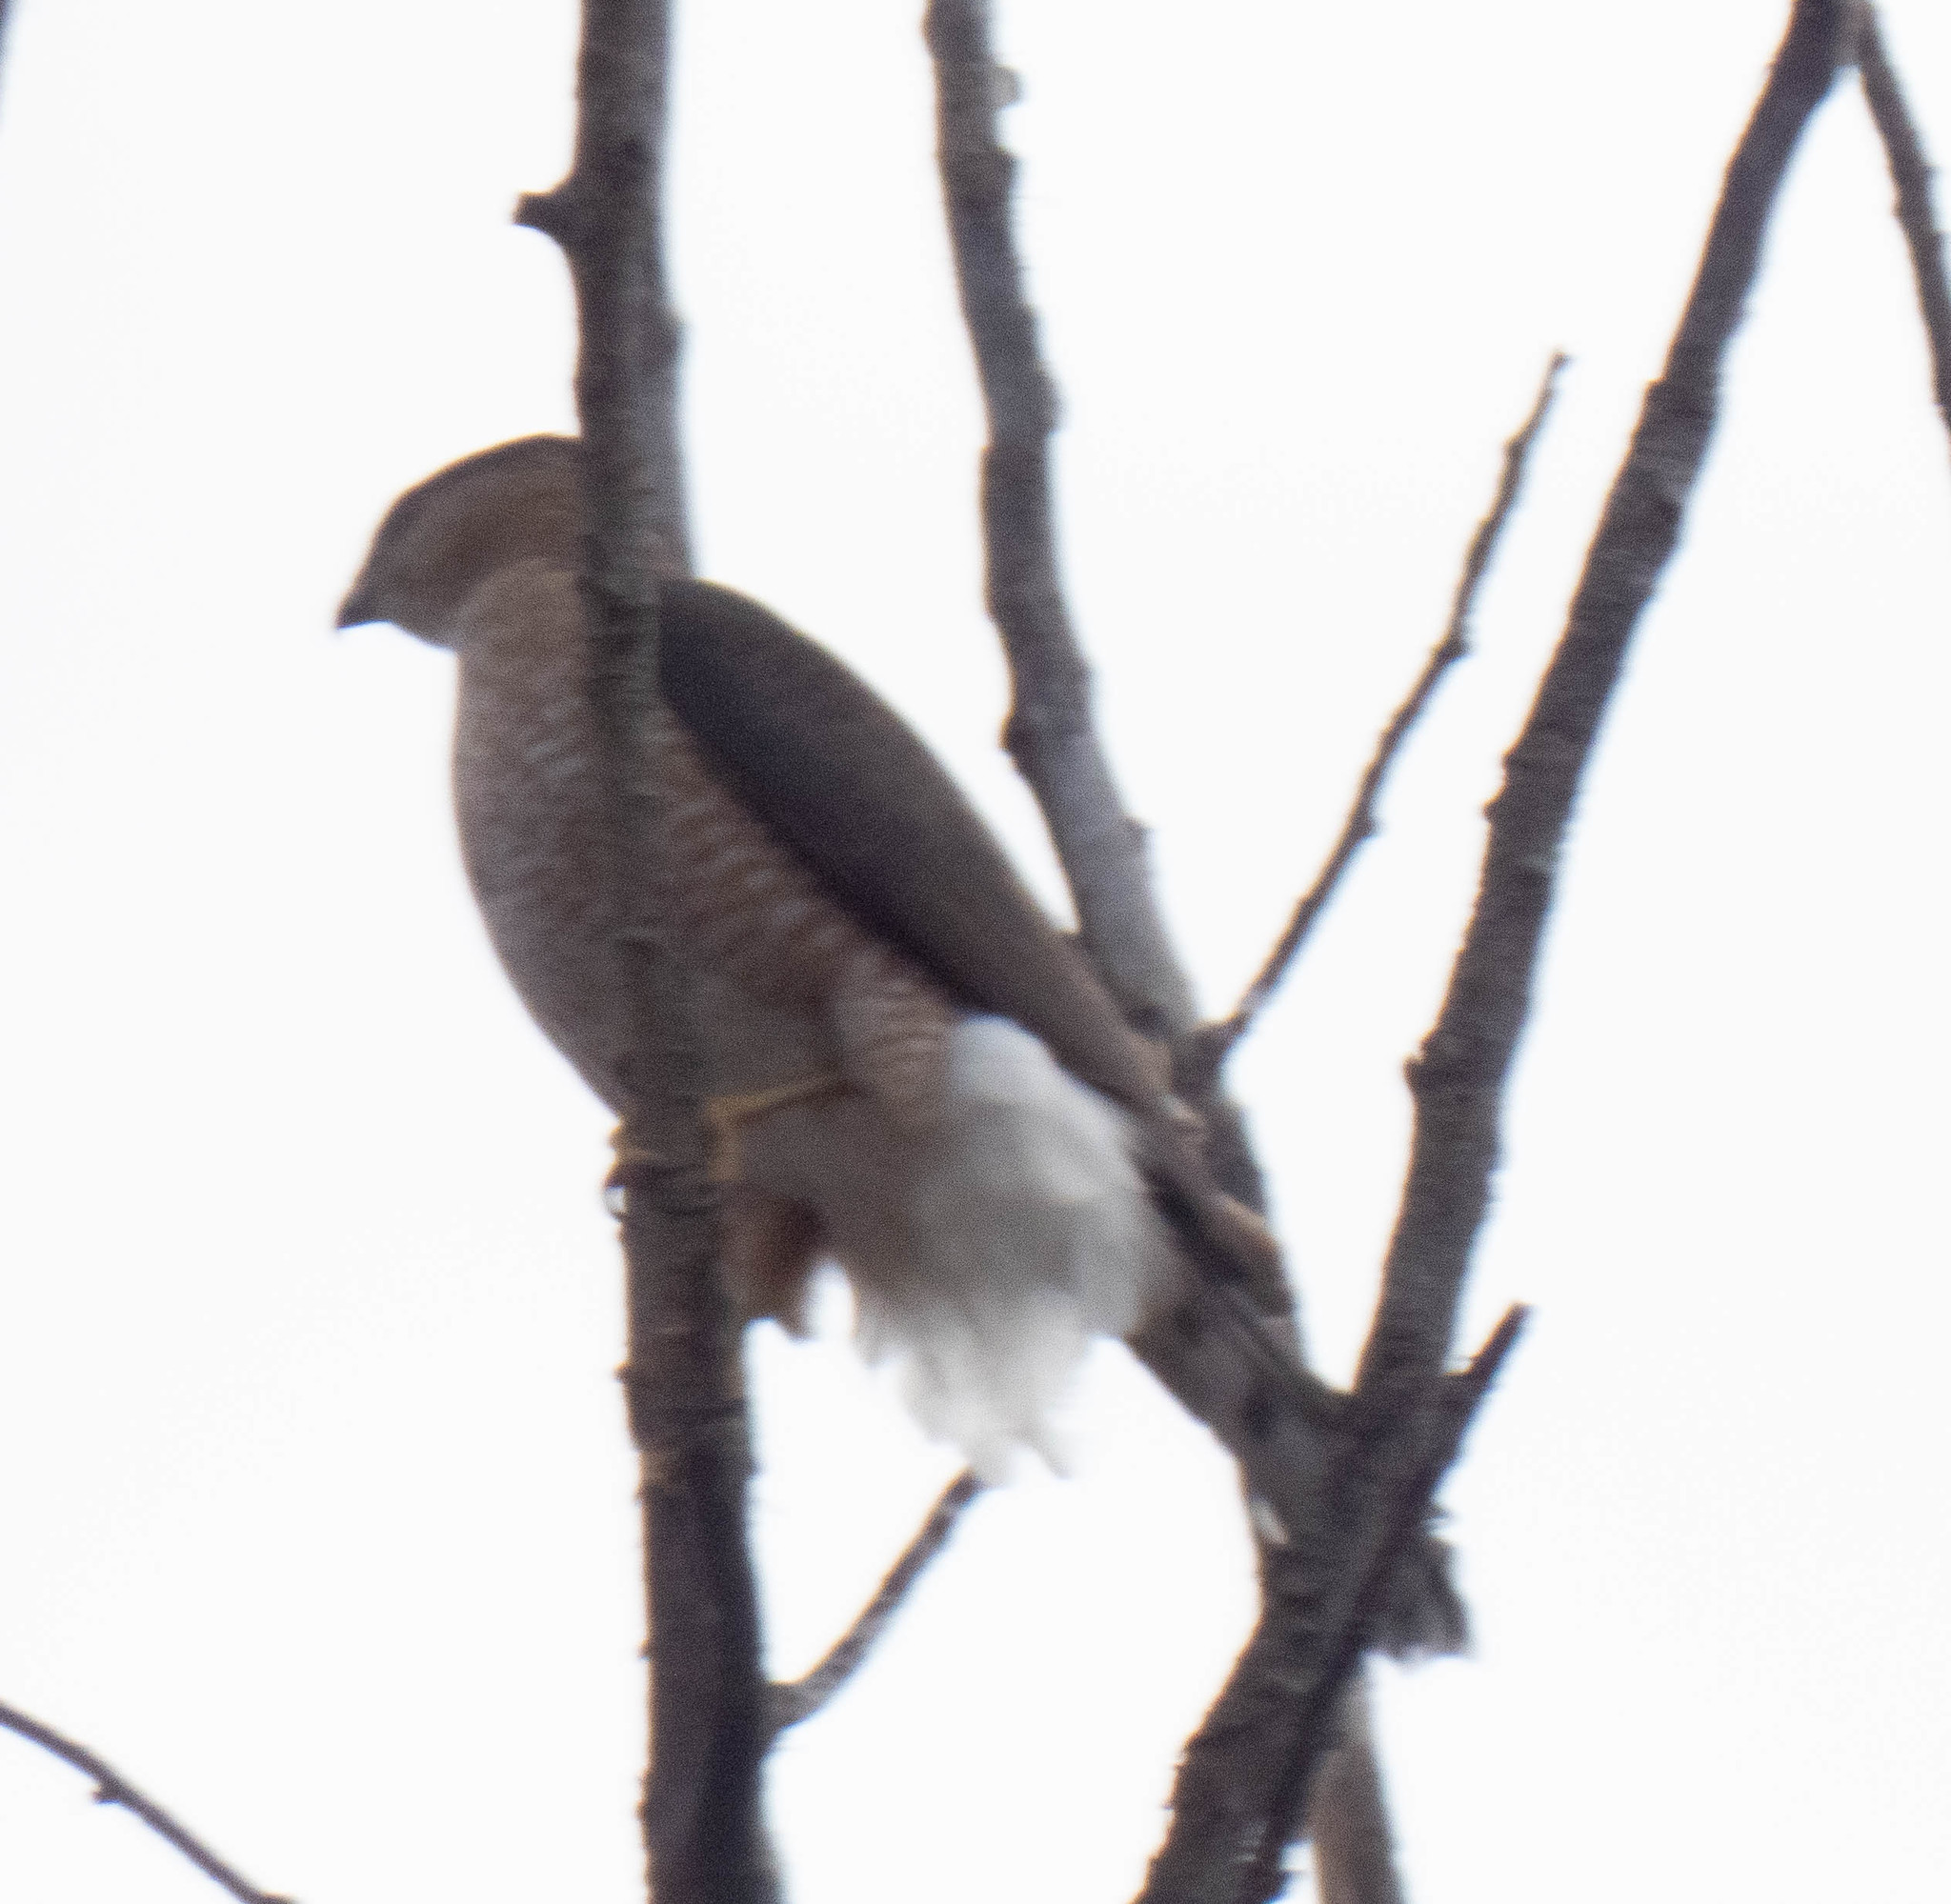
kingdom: Animalia
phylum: Chordata
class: Aves
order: Accipitriformes
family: Accipitridae
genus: Accipiter
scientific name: Accipiter cooperii
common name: Cooper's hawk
